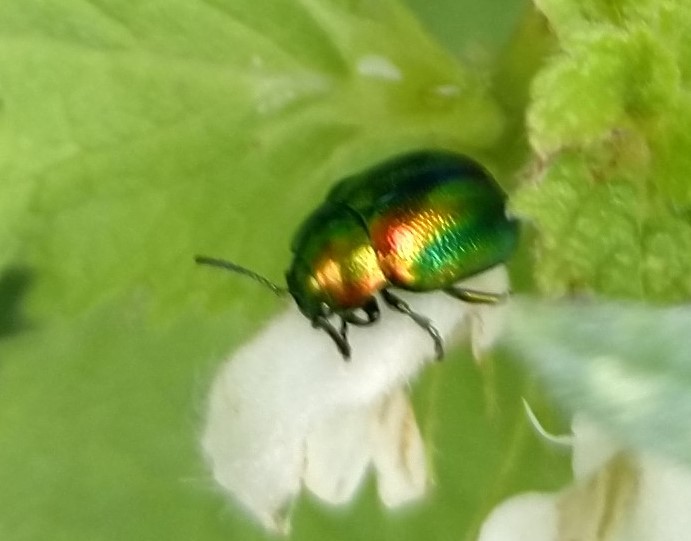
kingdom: Animalia
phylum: Arthropoda
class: Insecta
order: Coleoptera
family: Chrysomelidae
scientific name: Chrysomelidae
